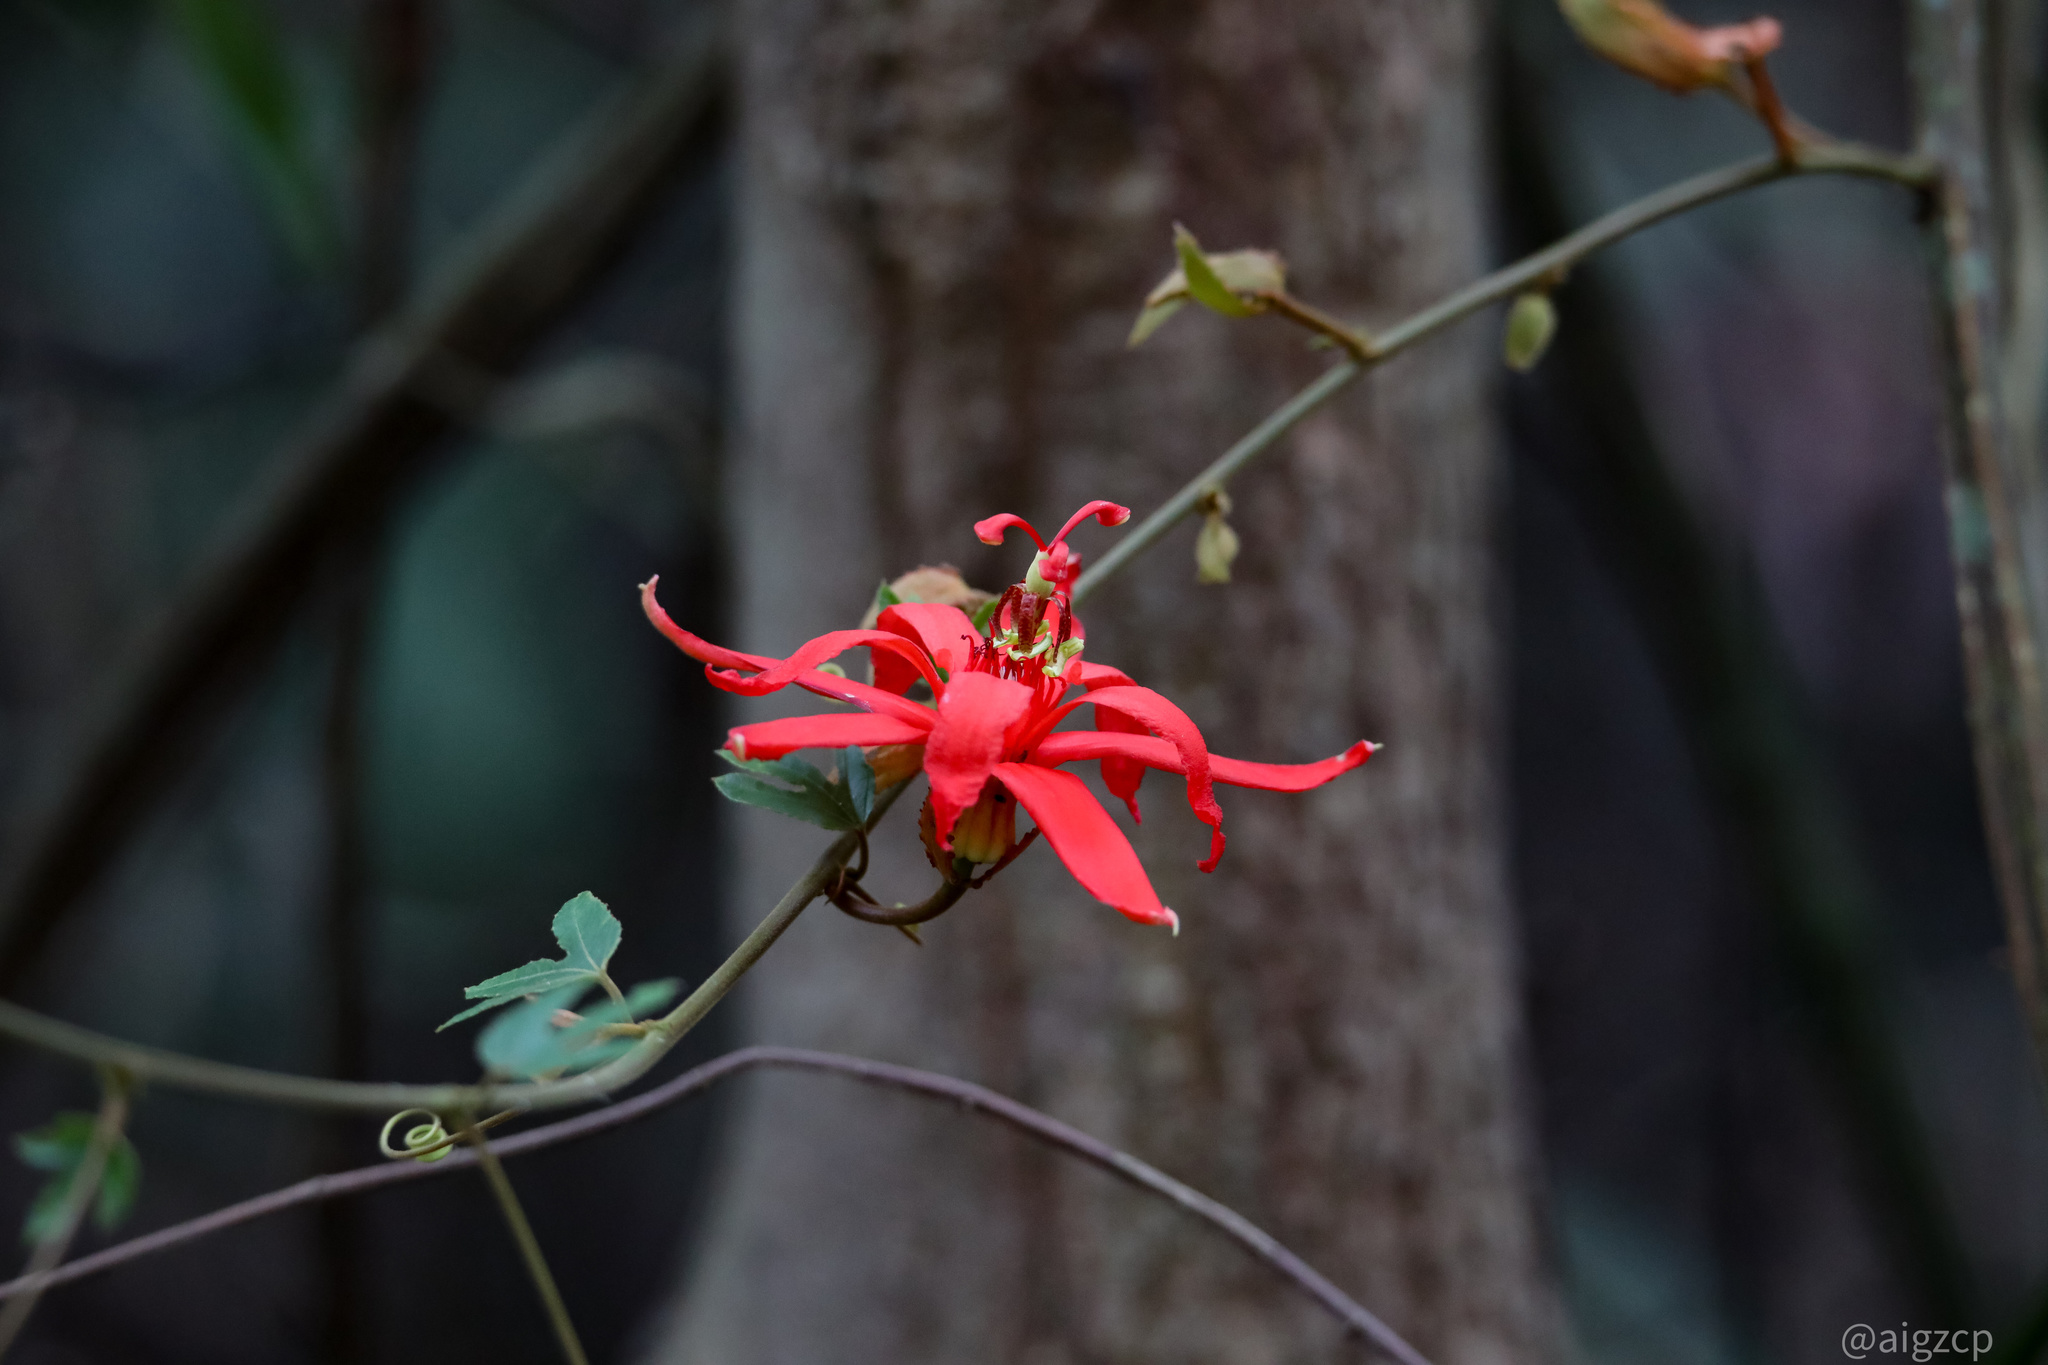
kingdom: Plantae
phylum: Tracheophyta
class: Magnoliopsida
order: Malpighiales
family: Passifloraceae
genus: Passiflora
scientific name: Passiflora vitifolia
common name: Perfumed passionflower
